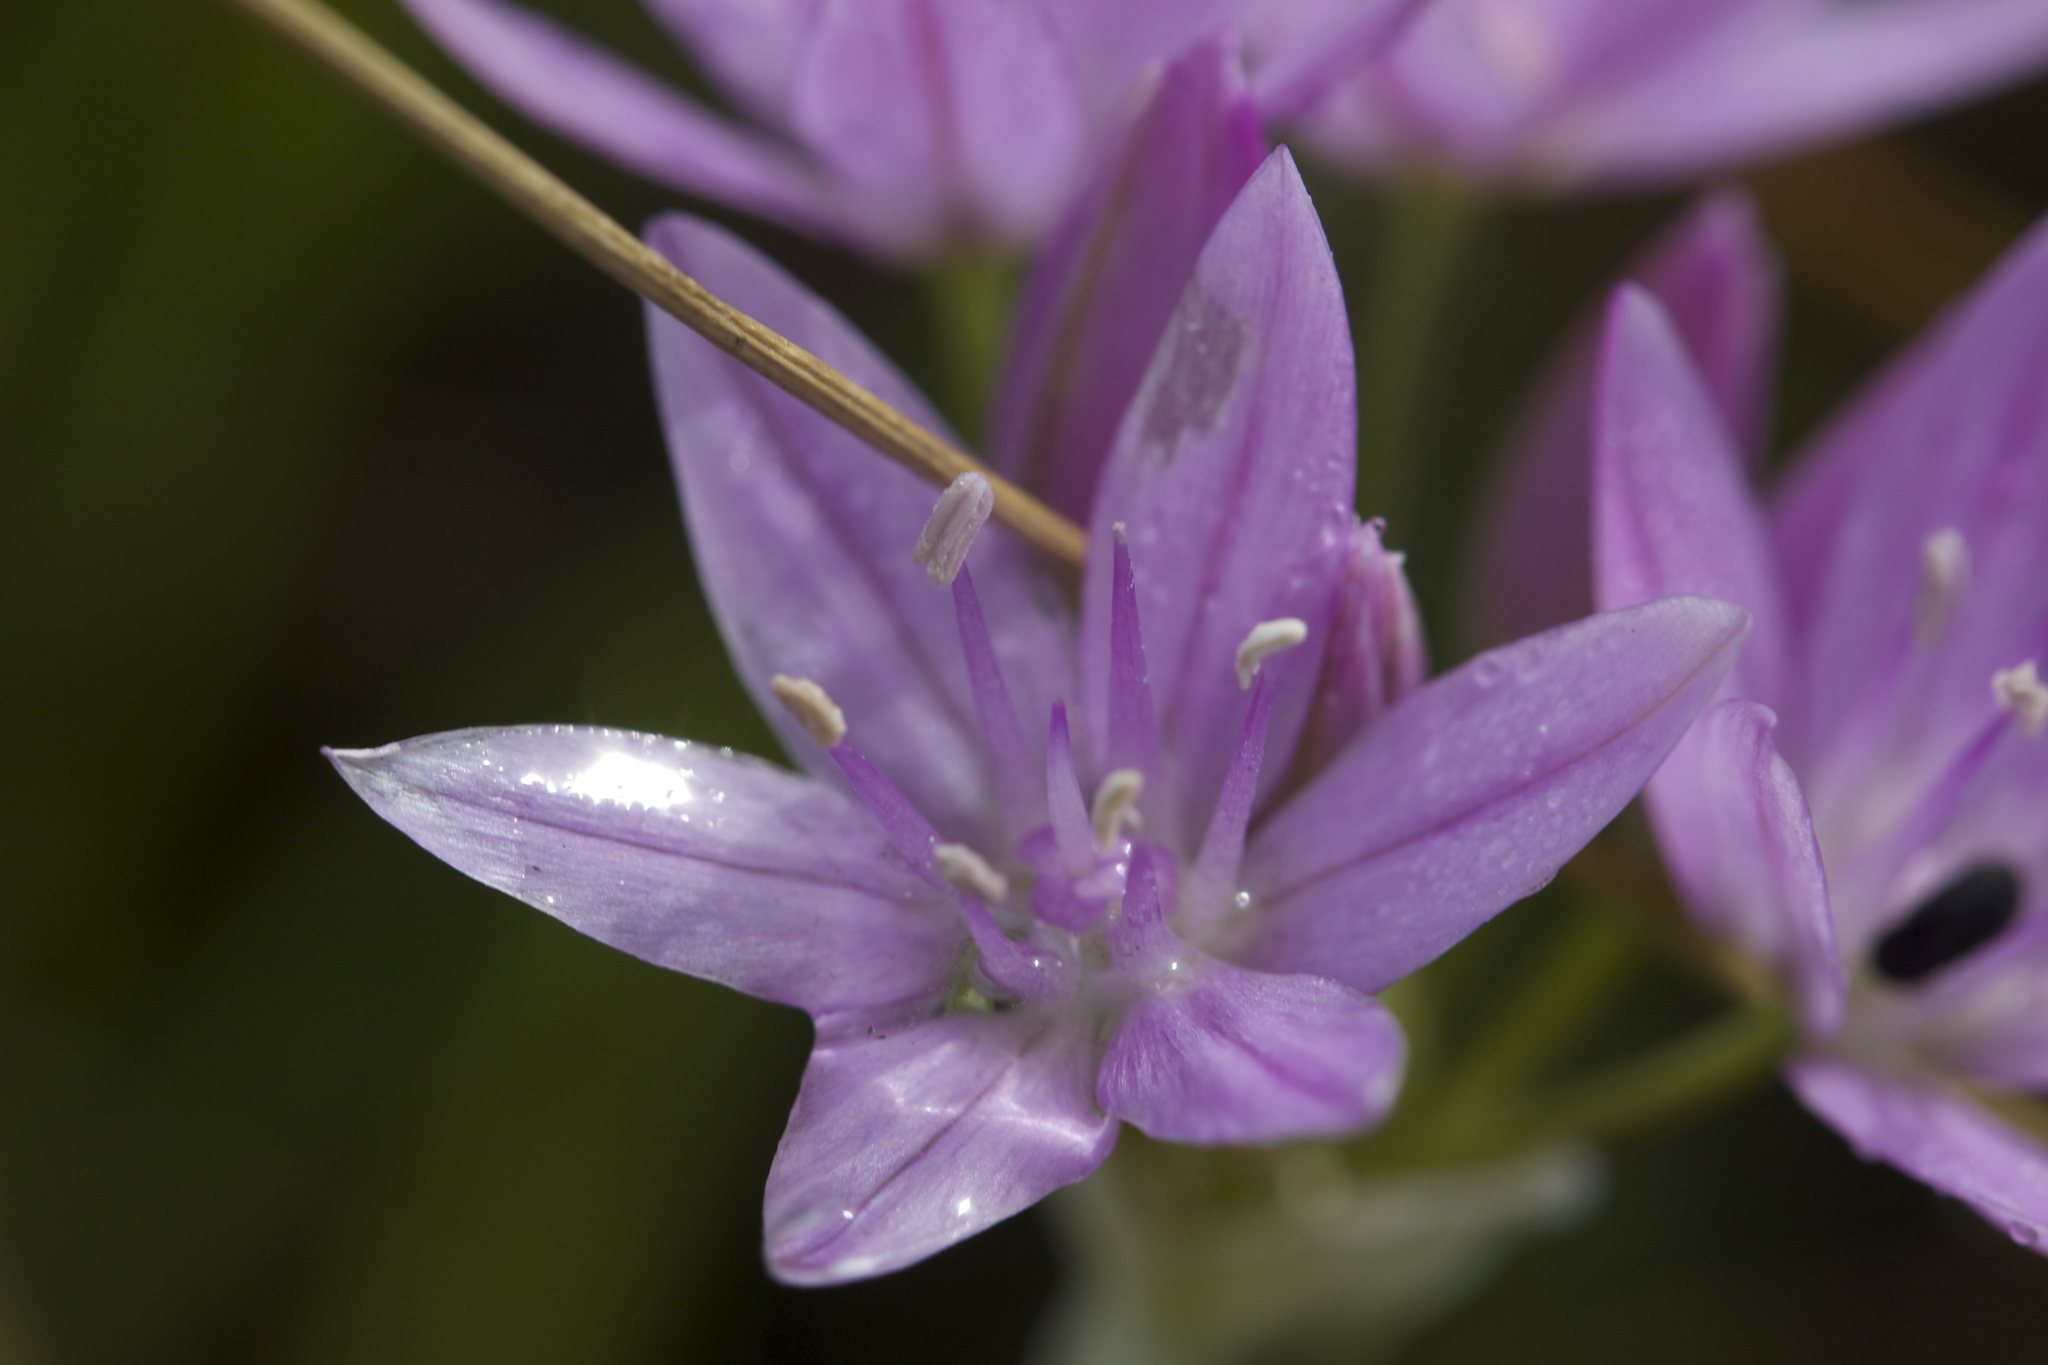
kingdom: Plantae
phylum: Tracheophyta
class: Liliopsida
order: Asparagales
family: Amaryllidaceae
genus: Allium
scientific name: Allium unifolium
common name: American garlic
